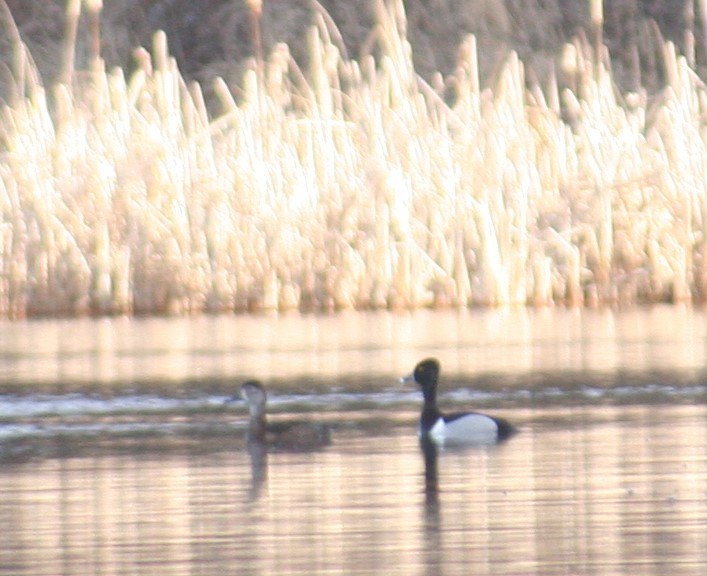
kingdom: Animalia
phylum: Chordata
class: Aves
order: Anseriformes
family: Anatidae
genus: Aythya
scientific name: Aythya collaris
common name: Ring-necked duck
